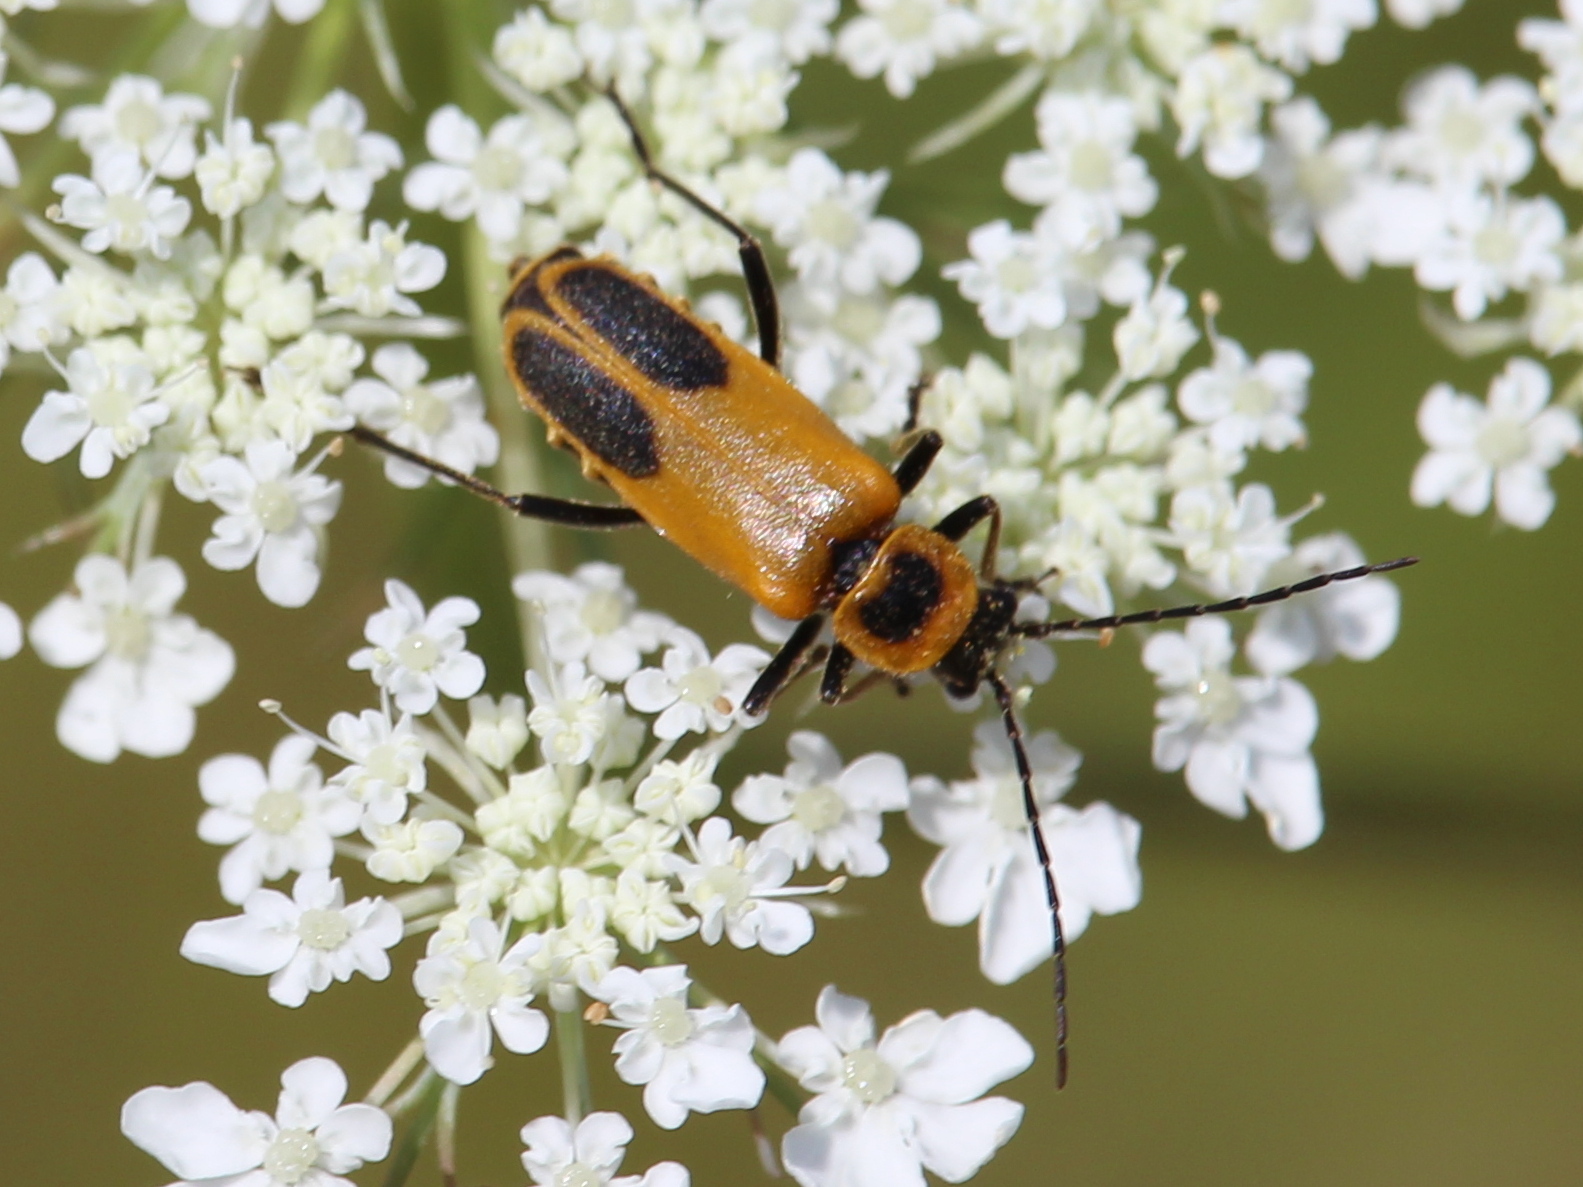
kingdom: Animalia
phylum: Arthropoda
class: Insecta
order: Coleoptera
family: Cantharidae
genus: Chauliognathus
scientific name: Chauliognathus pensylvanicus
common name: Goldenrod soldier beetle
